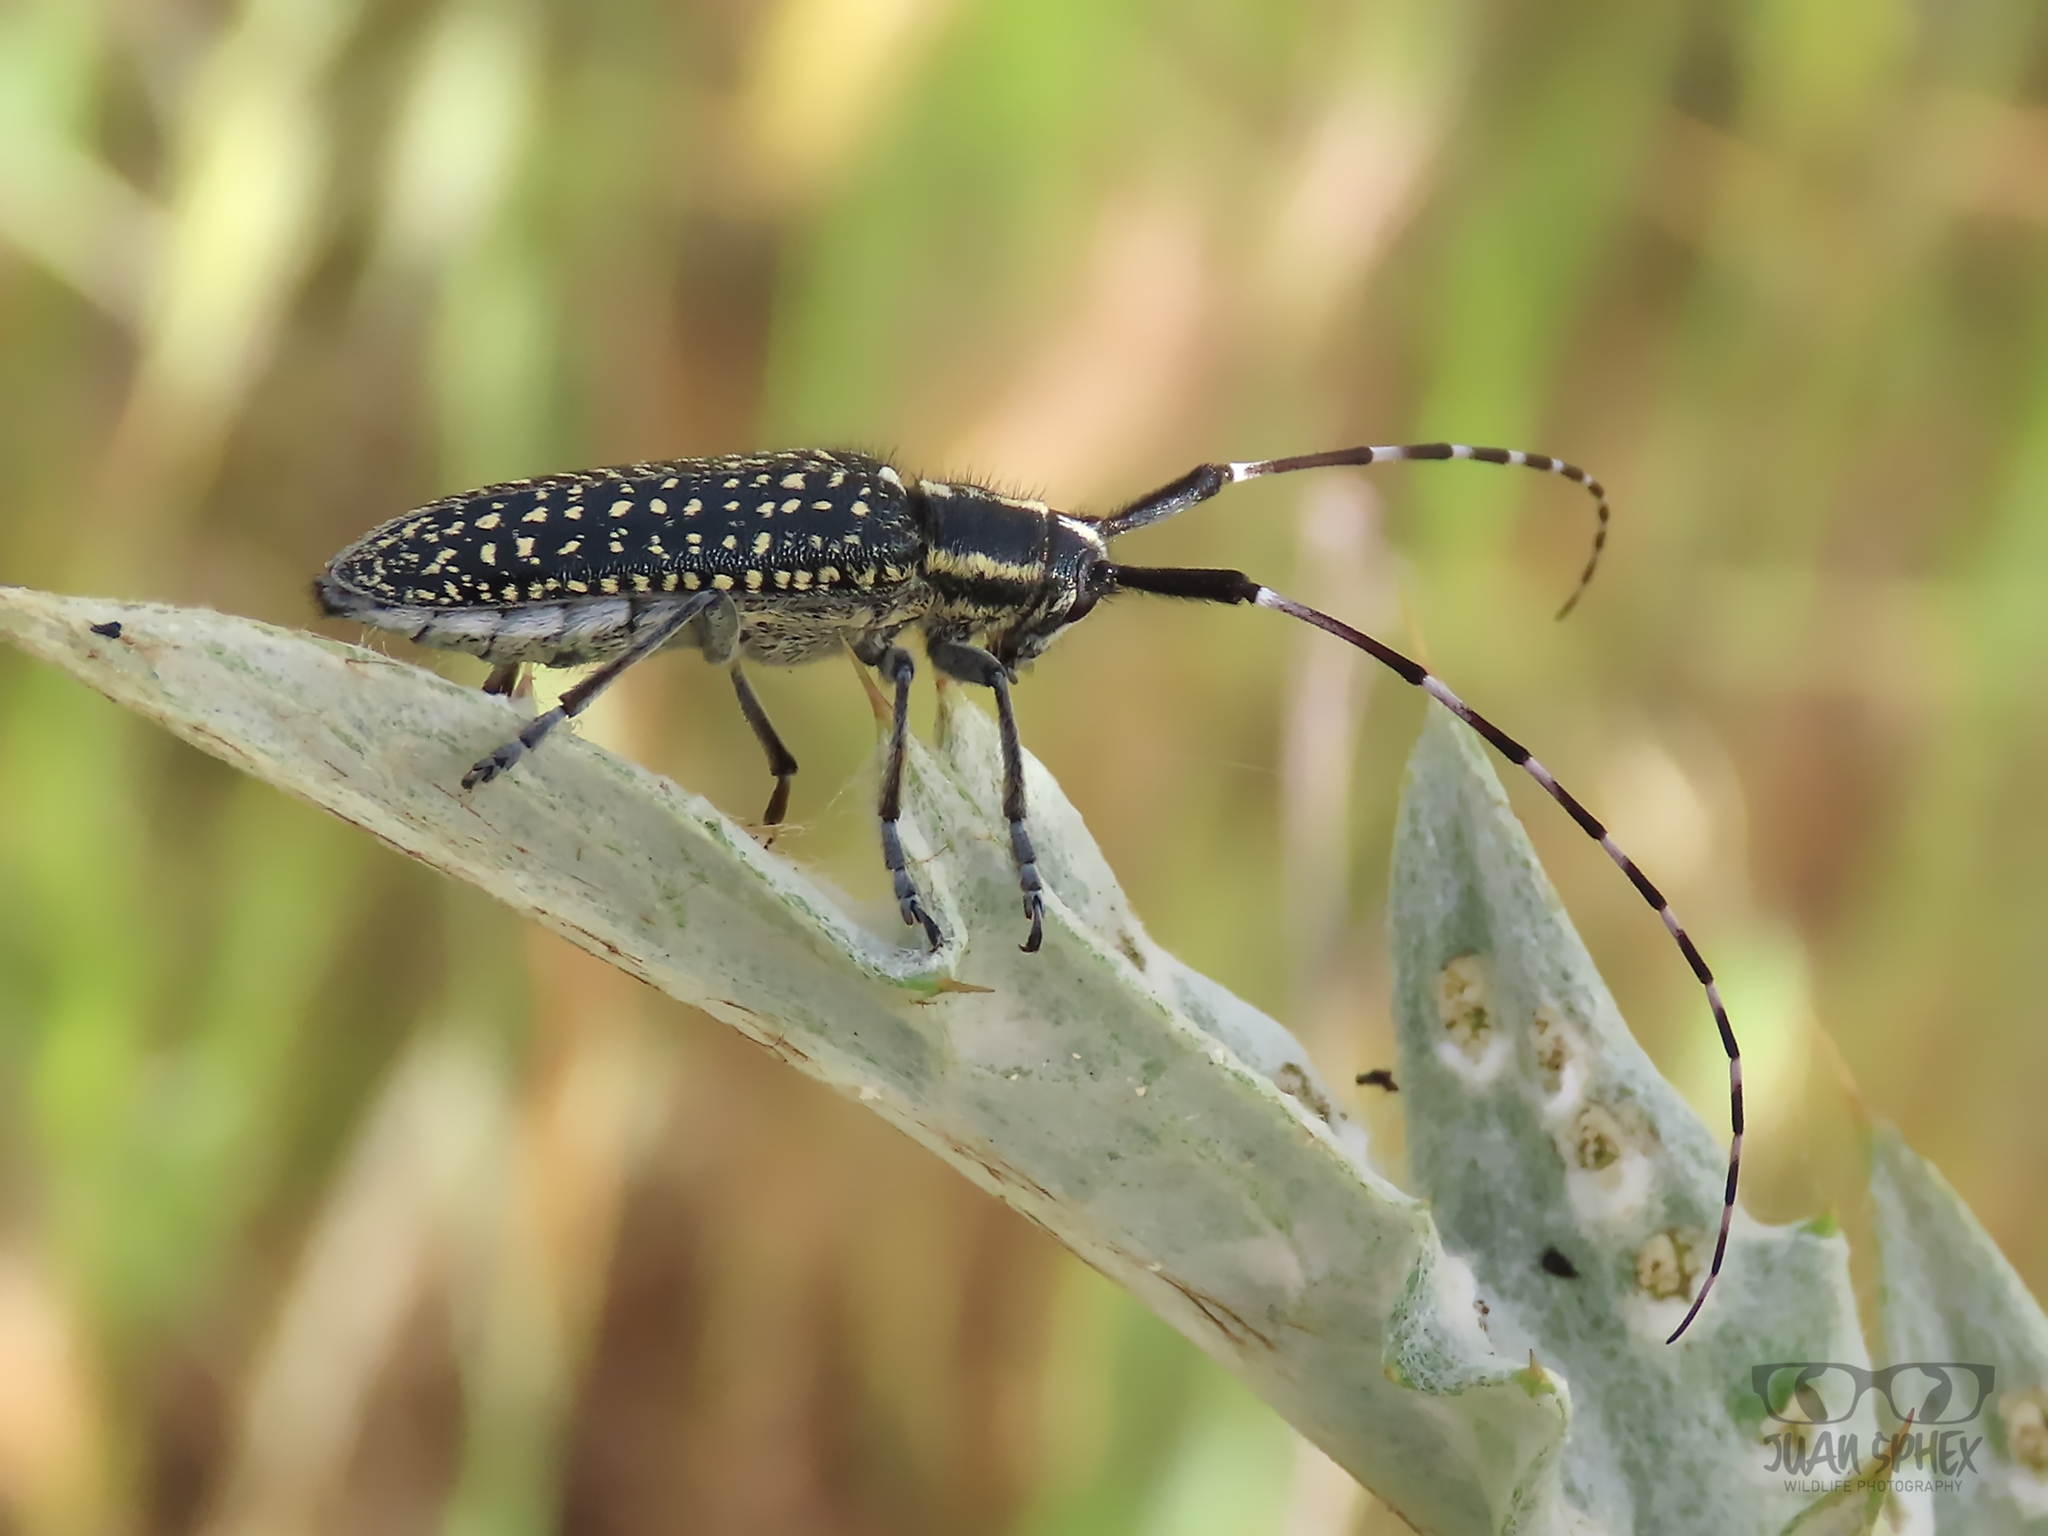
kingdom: Animalia
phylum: Arthropoda
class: Insecta
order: Coleoptera
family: Cerambycidae
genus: Agapanthia
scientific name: Agapanthia irrorata
